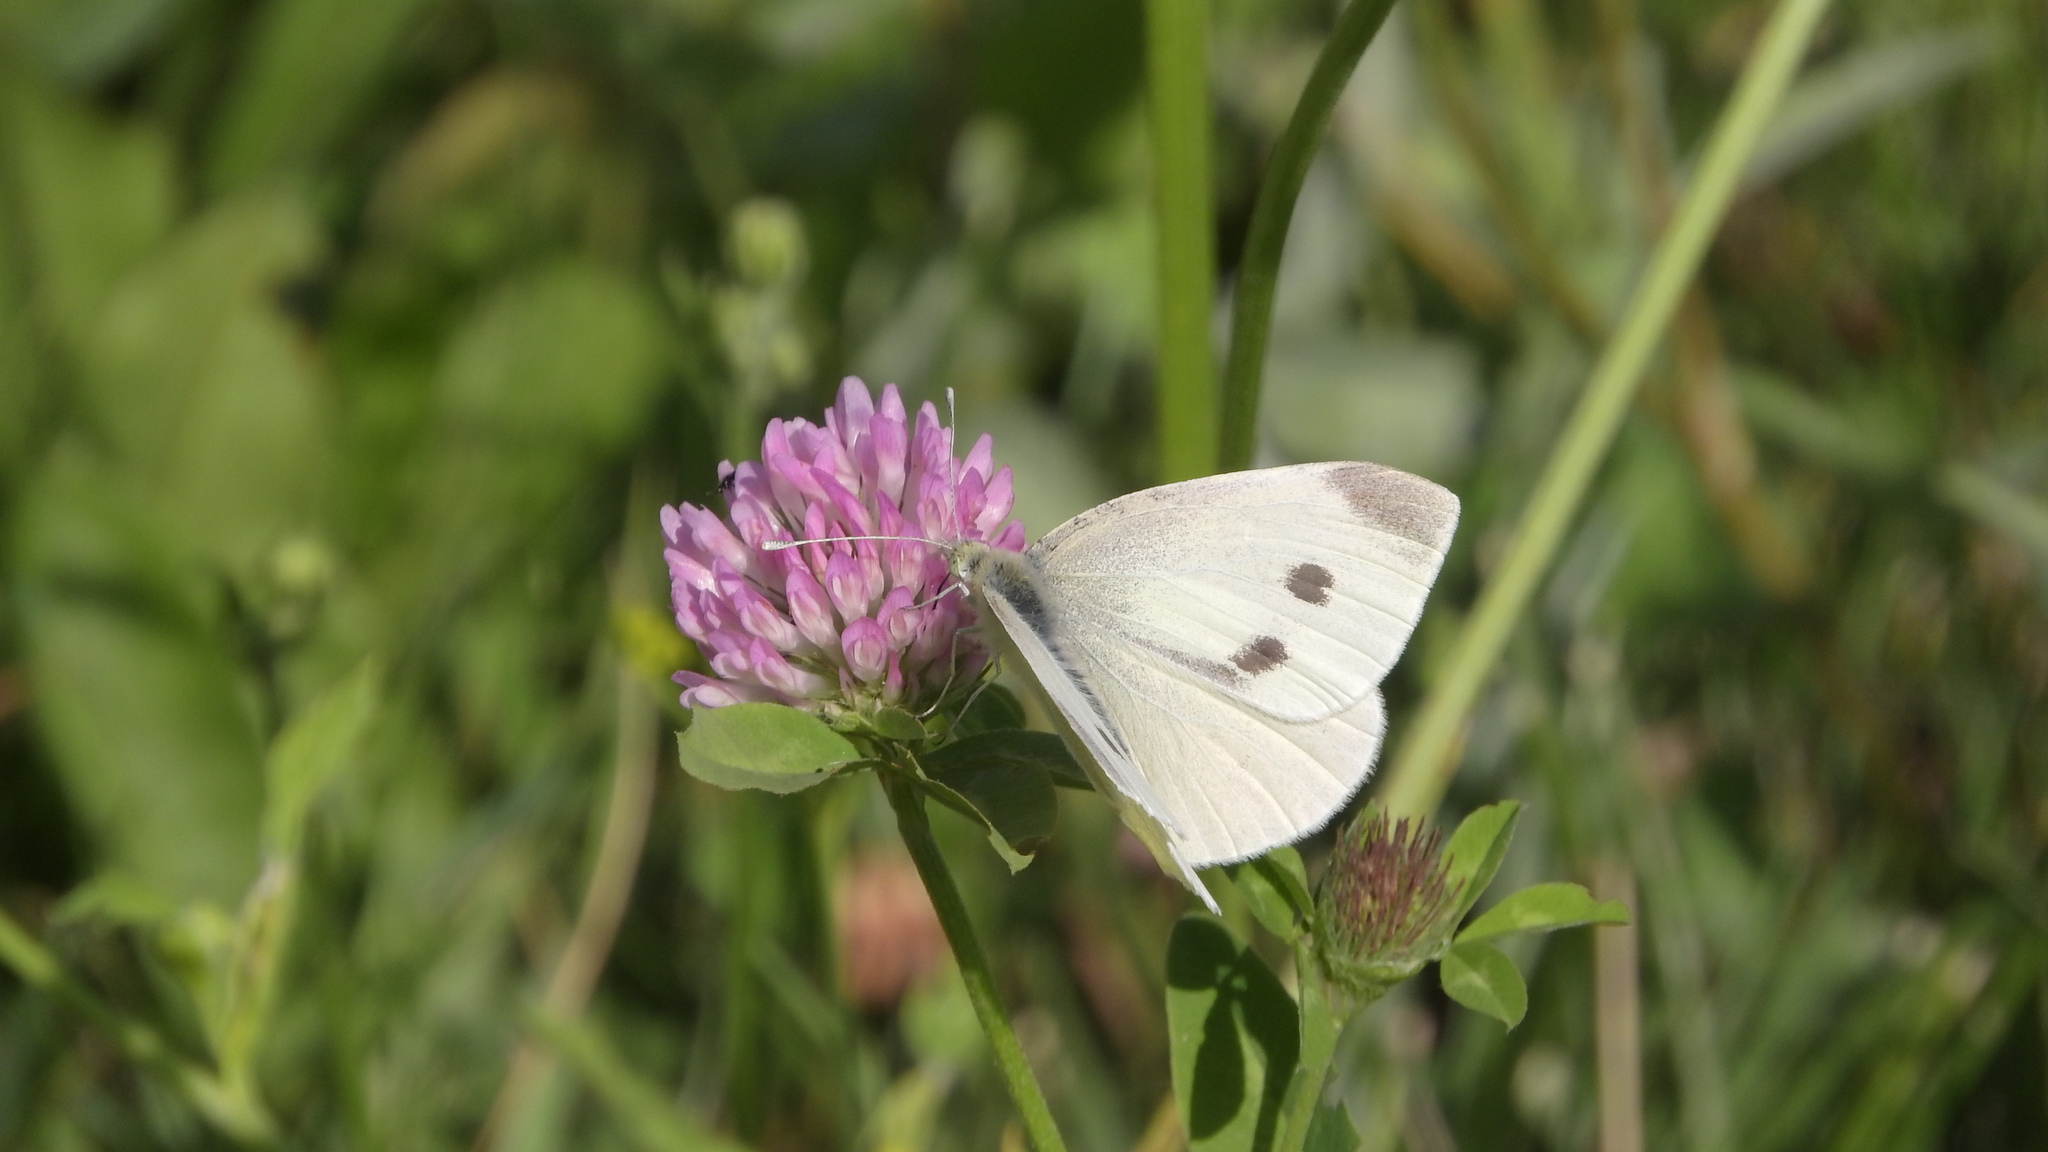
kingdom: Animalia
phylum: Arthropoda
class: Insecta
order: Lepidoptera
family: Pieridae
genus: Pieris
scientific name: Pieris rapae
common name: Small white
